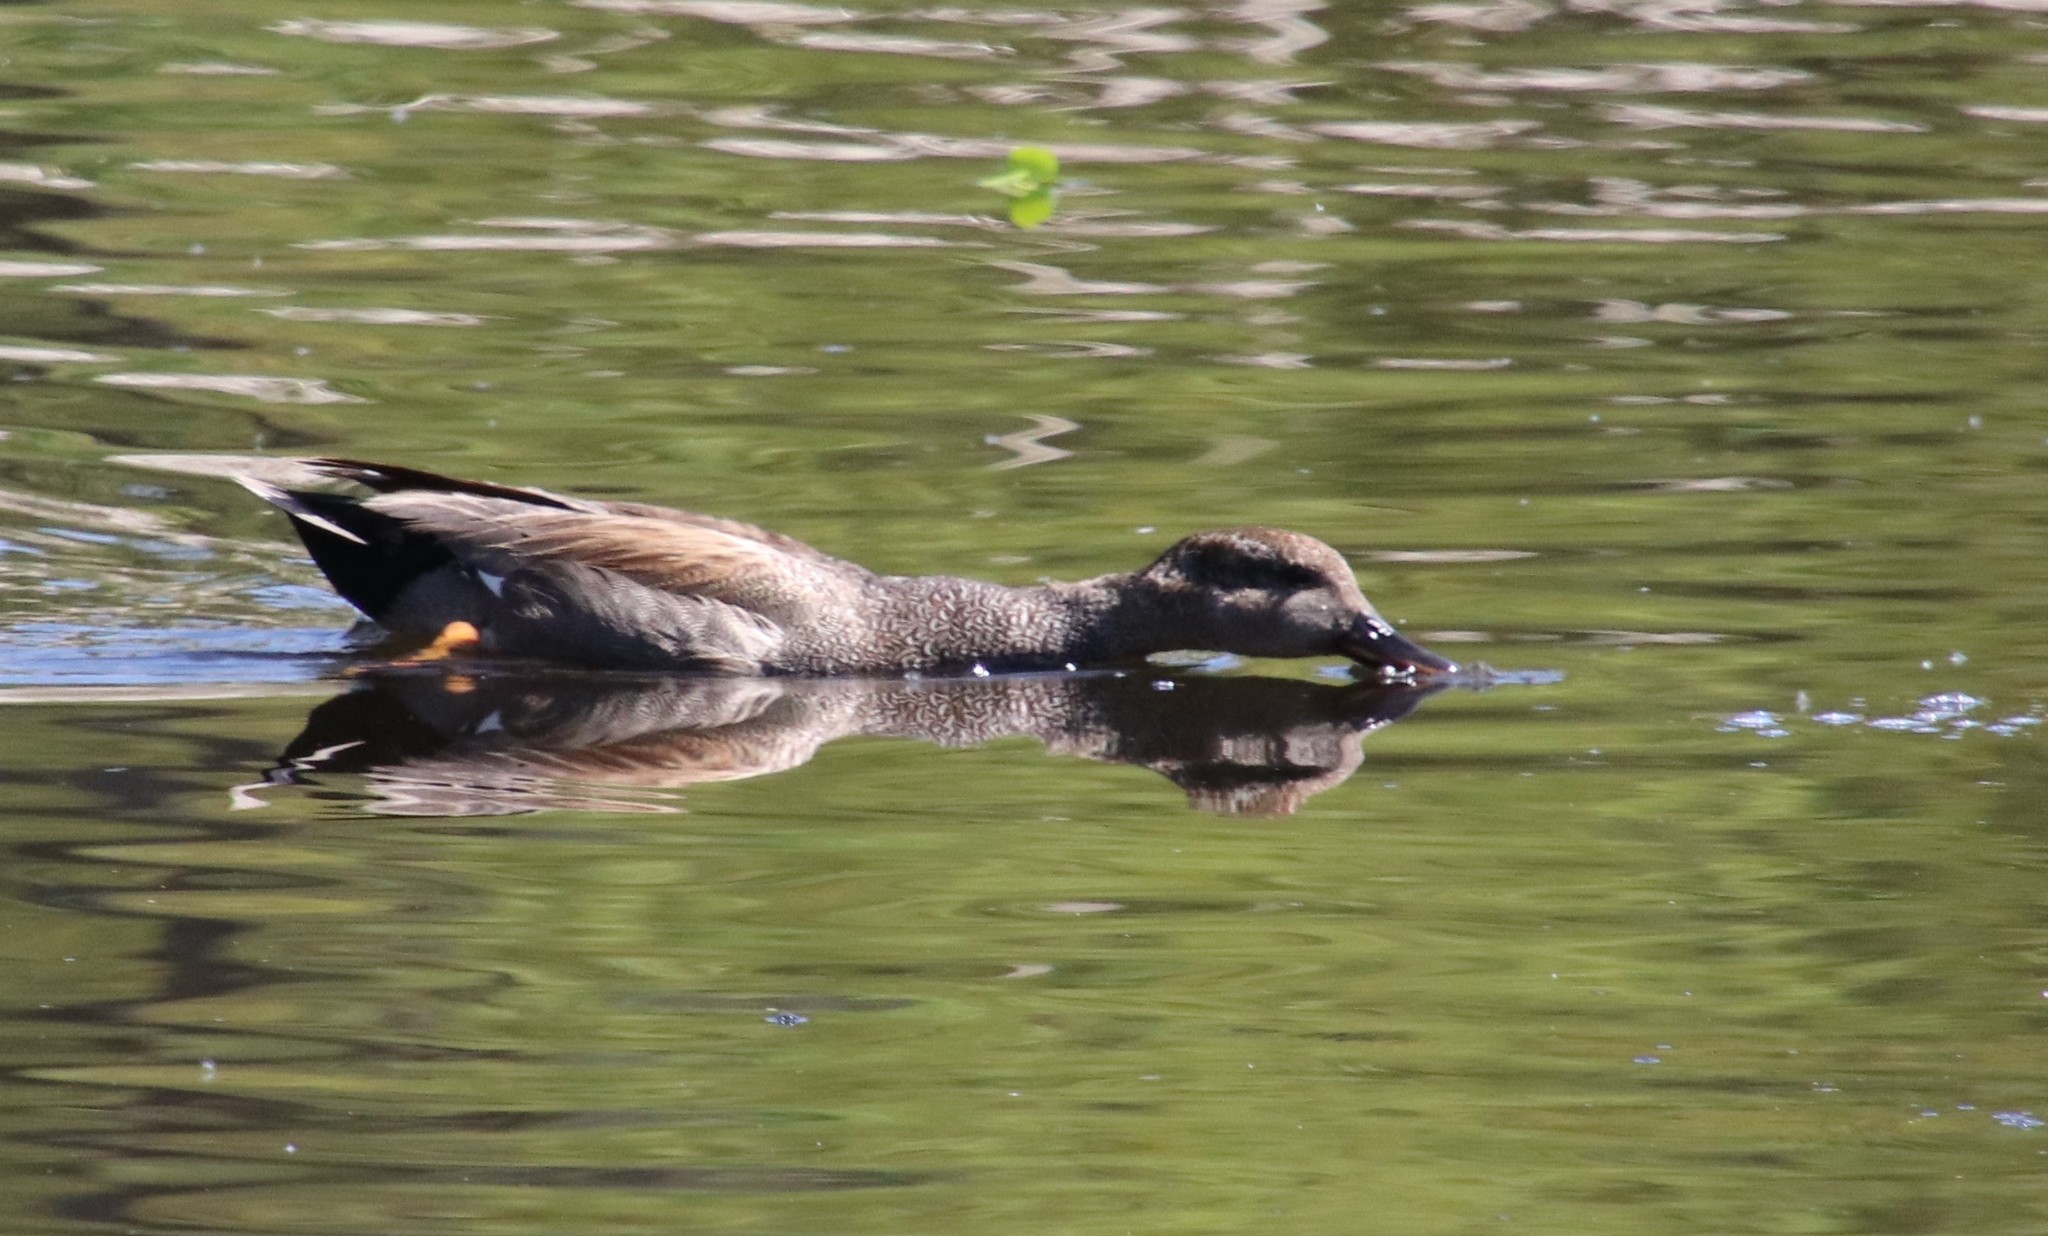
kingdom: Animalia
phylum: Chordata
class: Aves
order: Anseriformes
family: Anatidae
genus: Mareca
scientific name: Mareca strepera
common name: Gadwall
